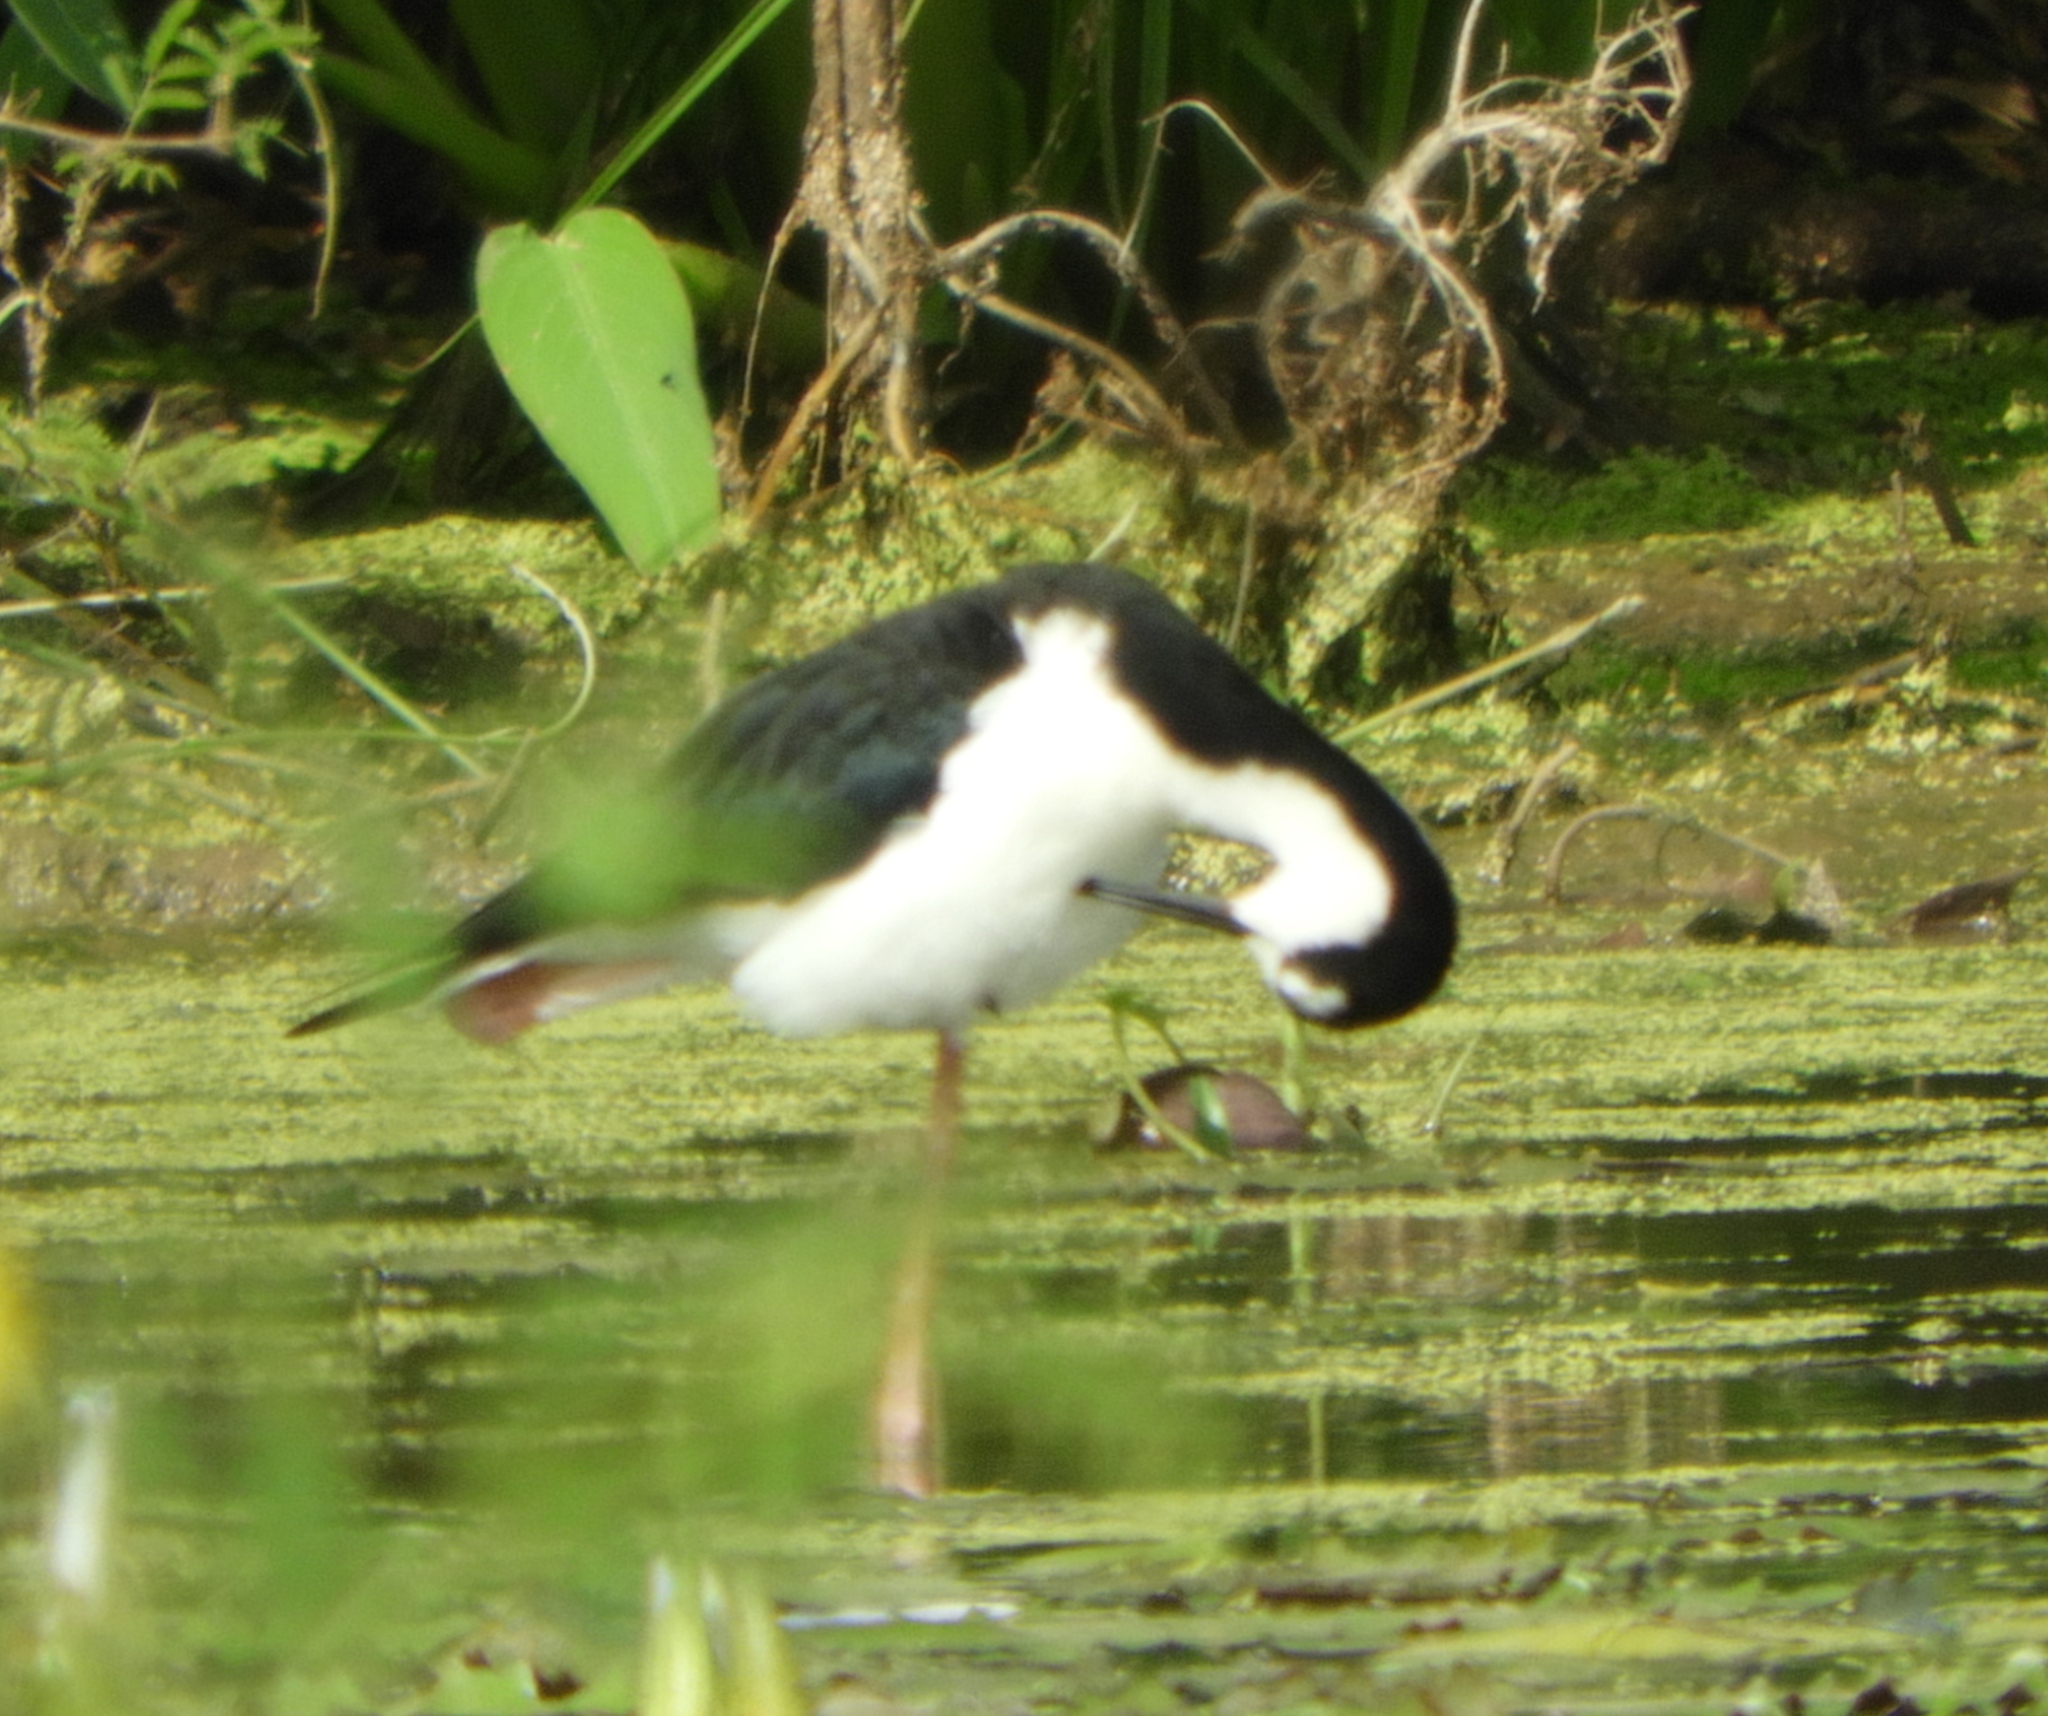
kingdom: Animalia
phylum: Chordata
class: Aves
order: Charadriiformes
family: Recurvirostridae
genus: Himantopus
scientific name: Himantopus mexicanus
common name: Black-necked stilt
